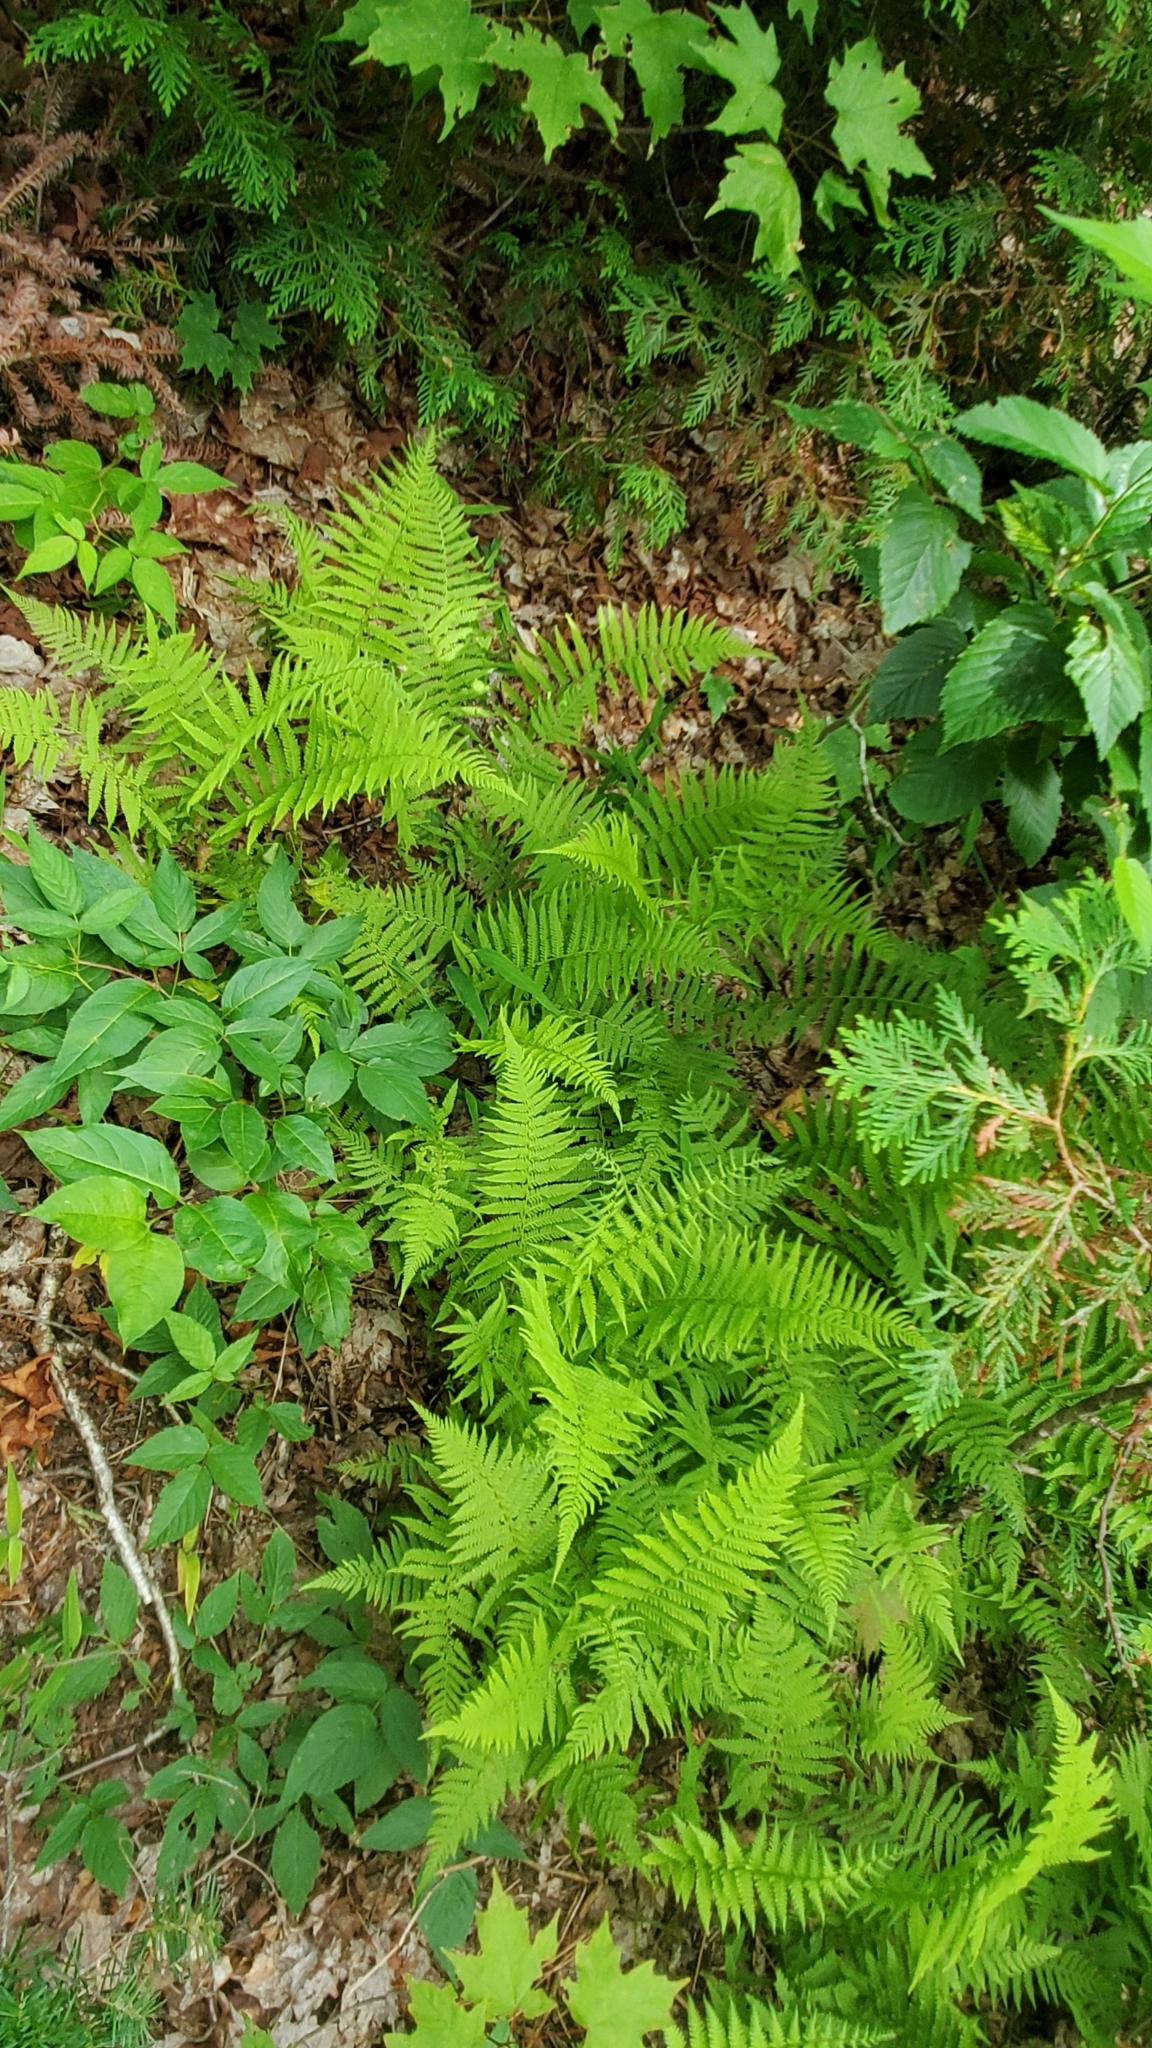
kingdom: Plantae
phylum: Tracheophyta
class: Polypodiopsida
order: Polypodiales
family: Thelypteridaceae
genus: Amauropelta
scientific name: Amauropelta noveboracensis
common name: New york fern
